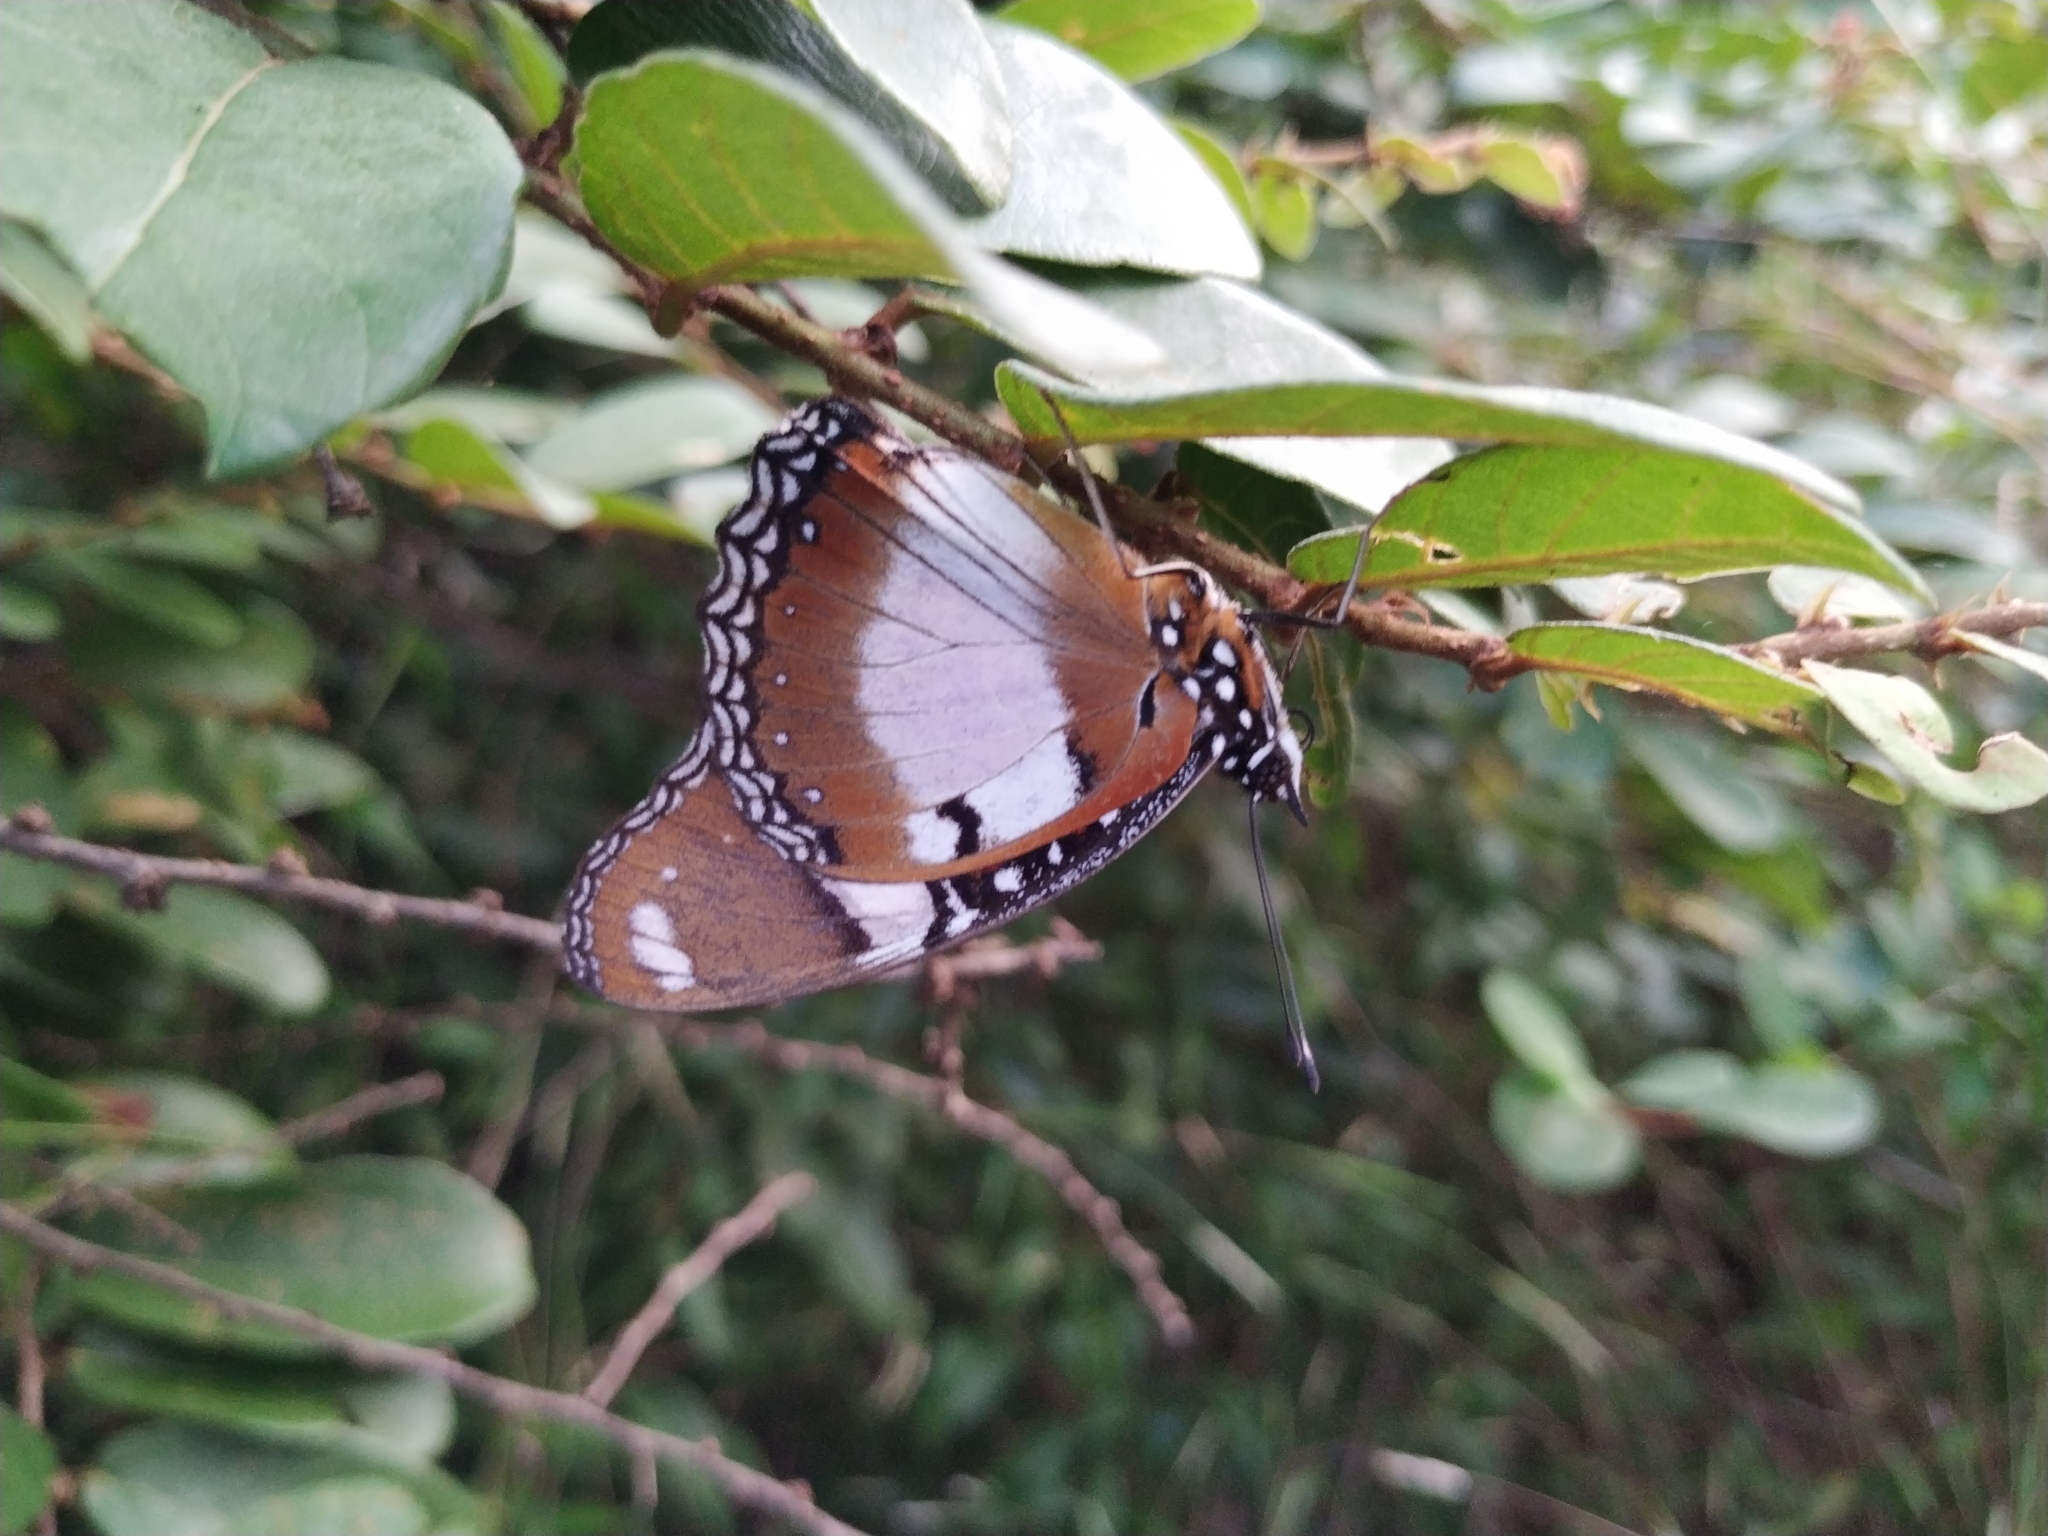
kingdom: Animalia
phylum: Arthropoda
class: Insecta
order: Lepidoptera
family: Nymphalidae
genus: Hypolimnas
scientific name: Hypolimnas misippus
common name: False plain tiger
